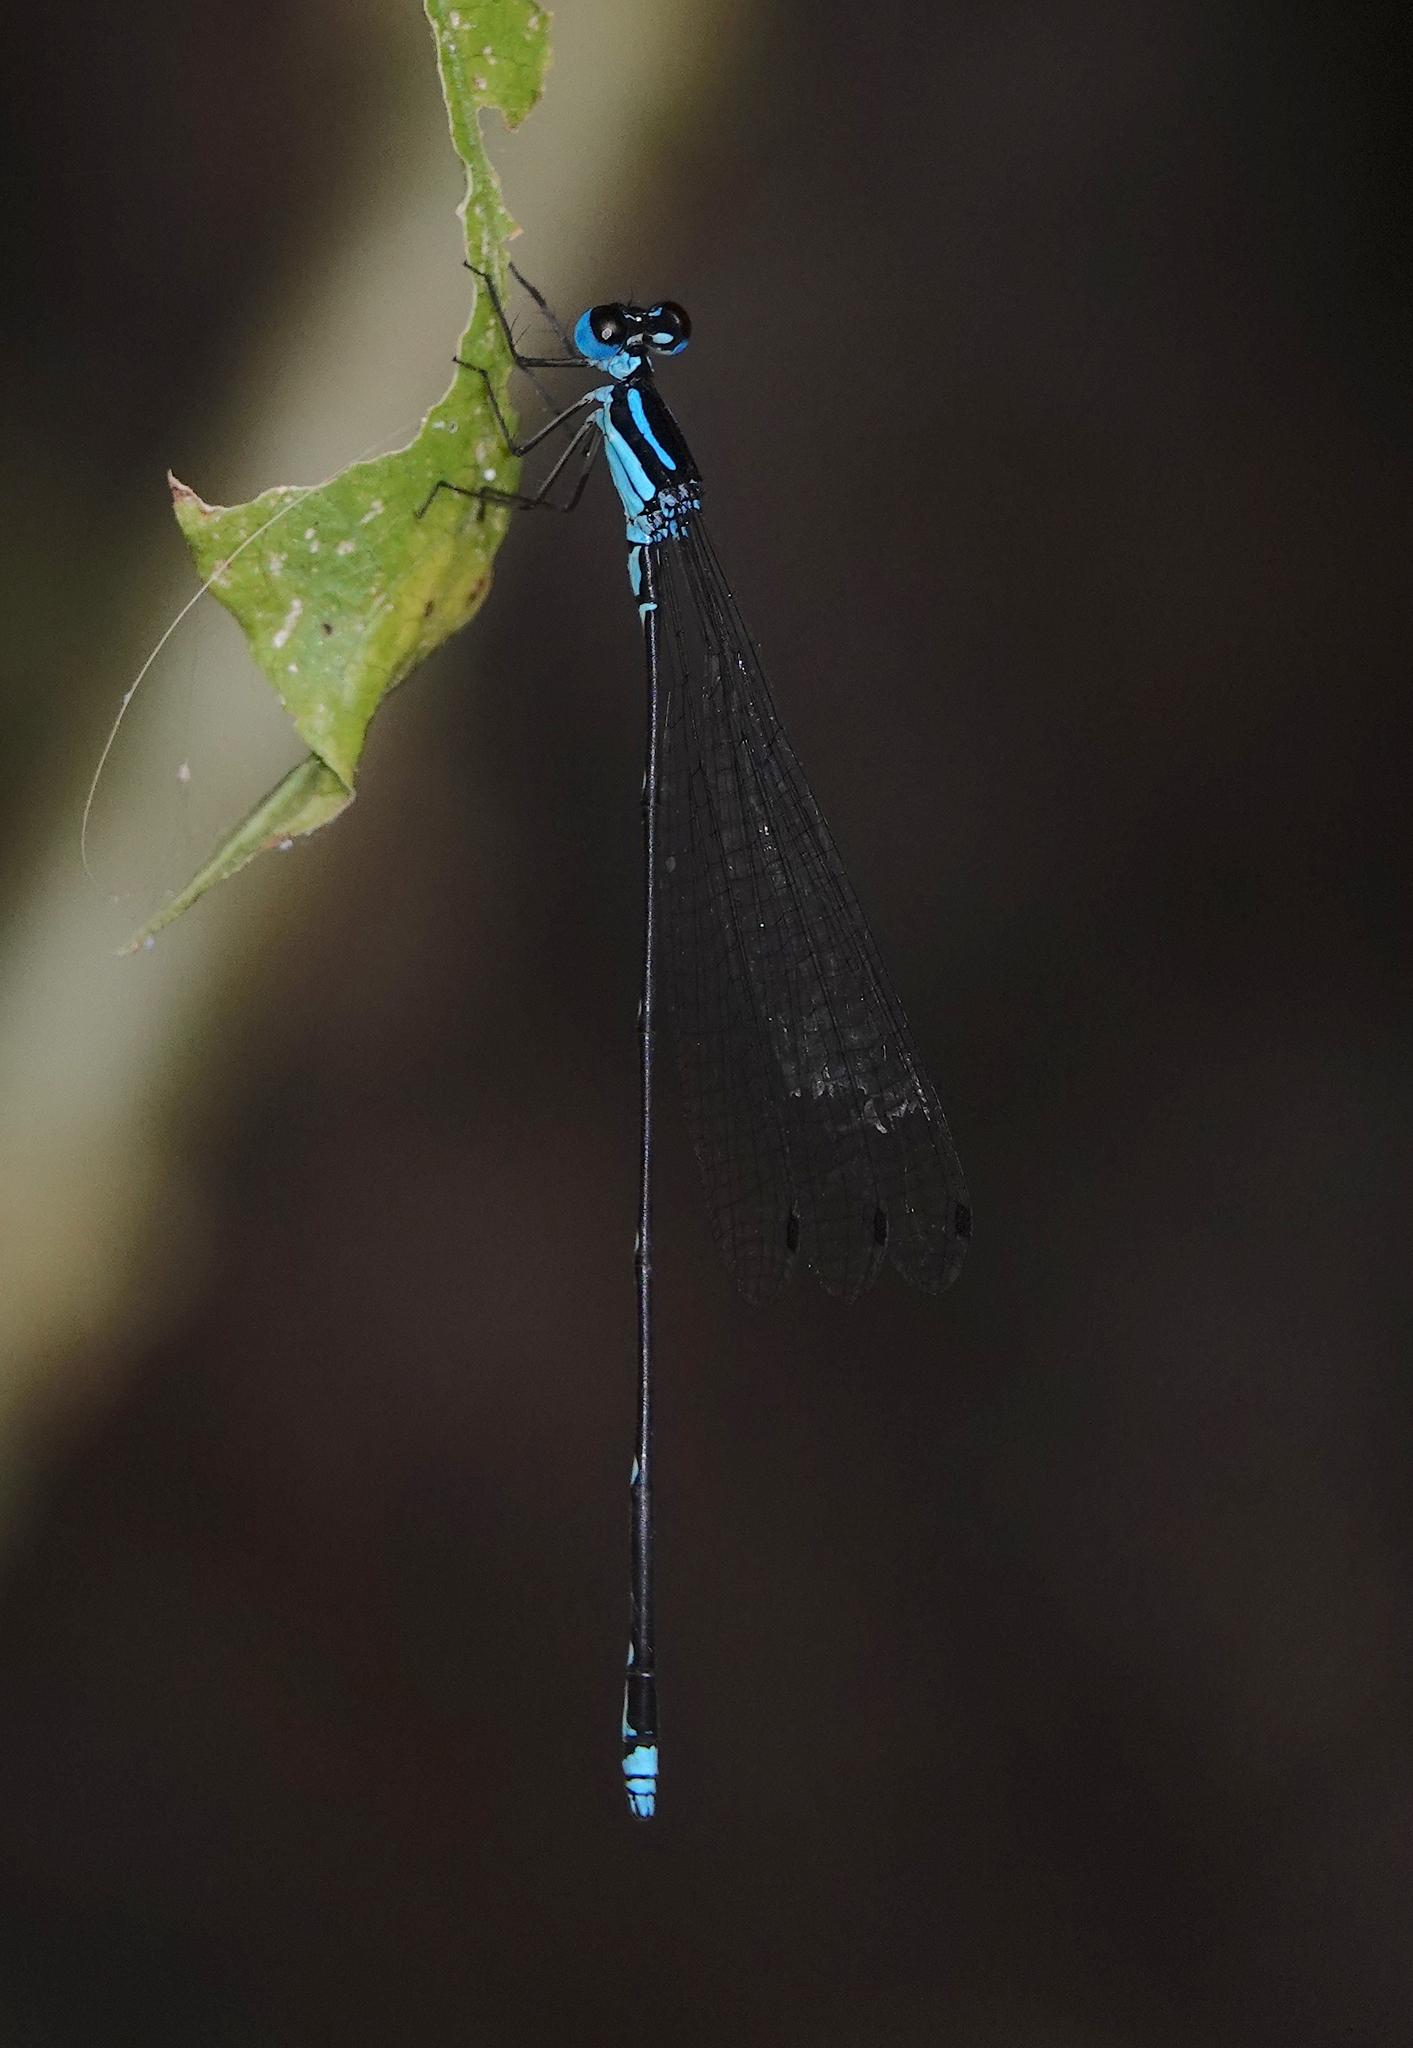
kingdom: Animalia
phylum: Arthropoda
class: Insecta
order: Odonata
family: Platycnemididae
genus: Coeliccia
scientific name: Coeliccia membranipes
